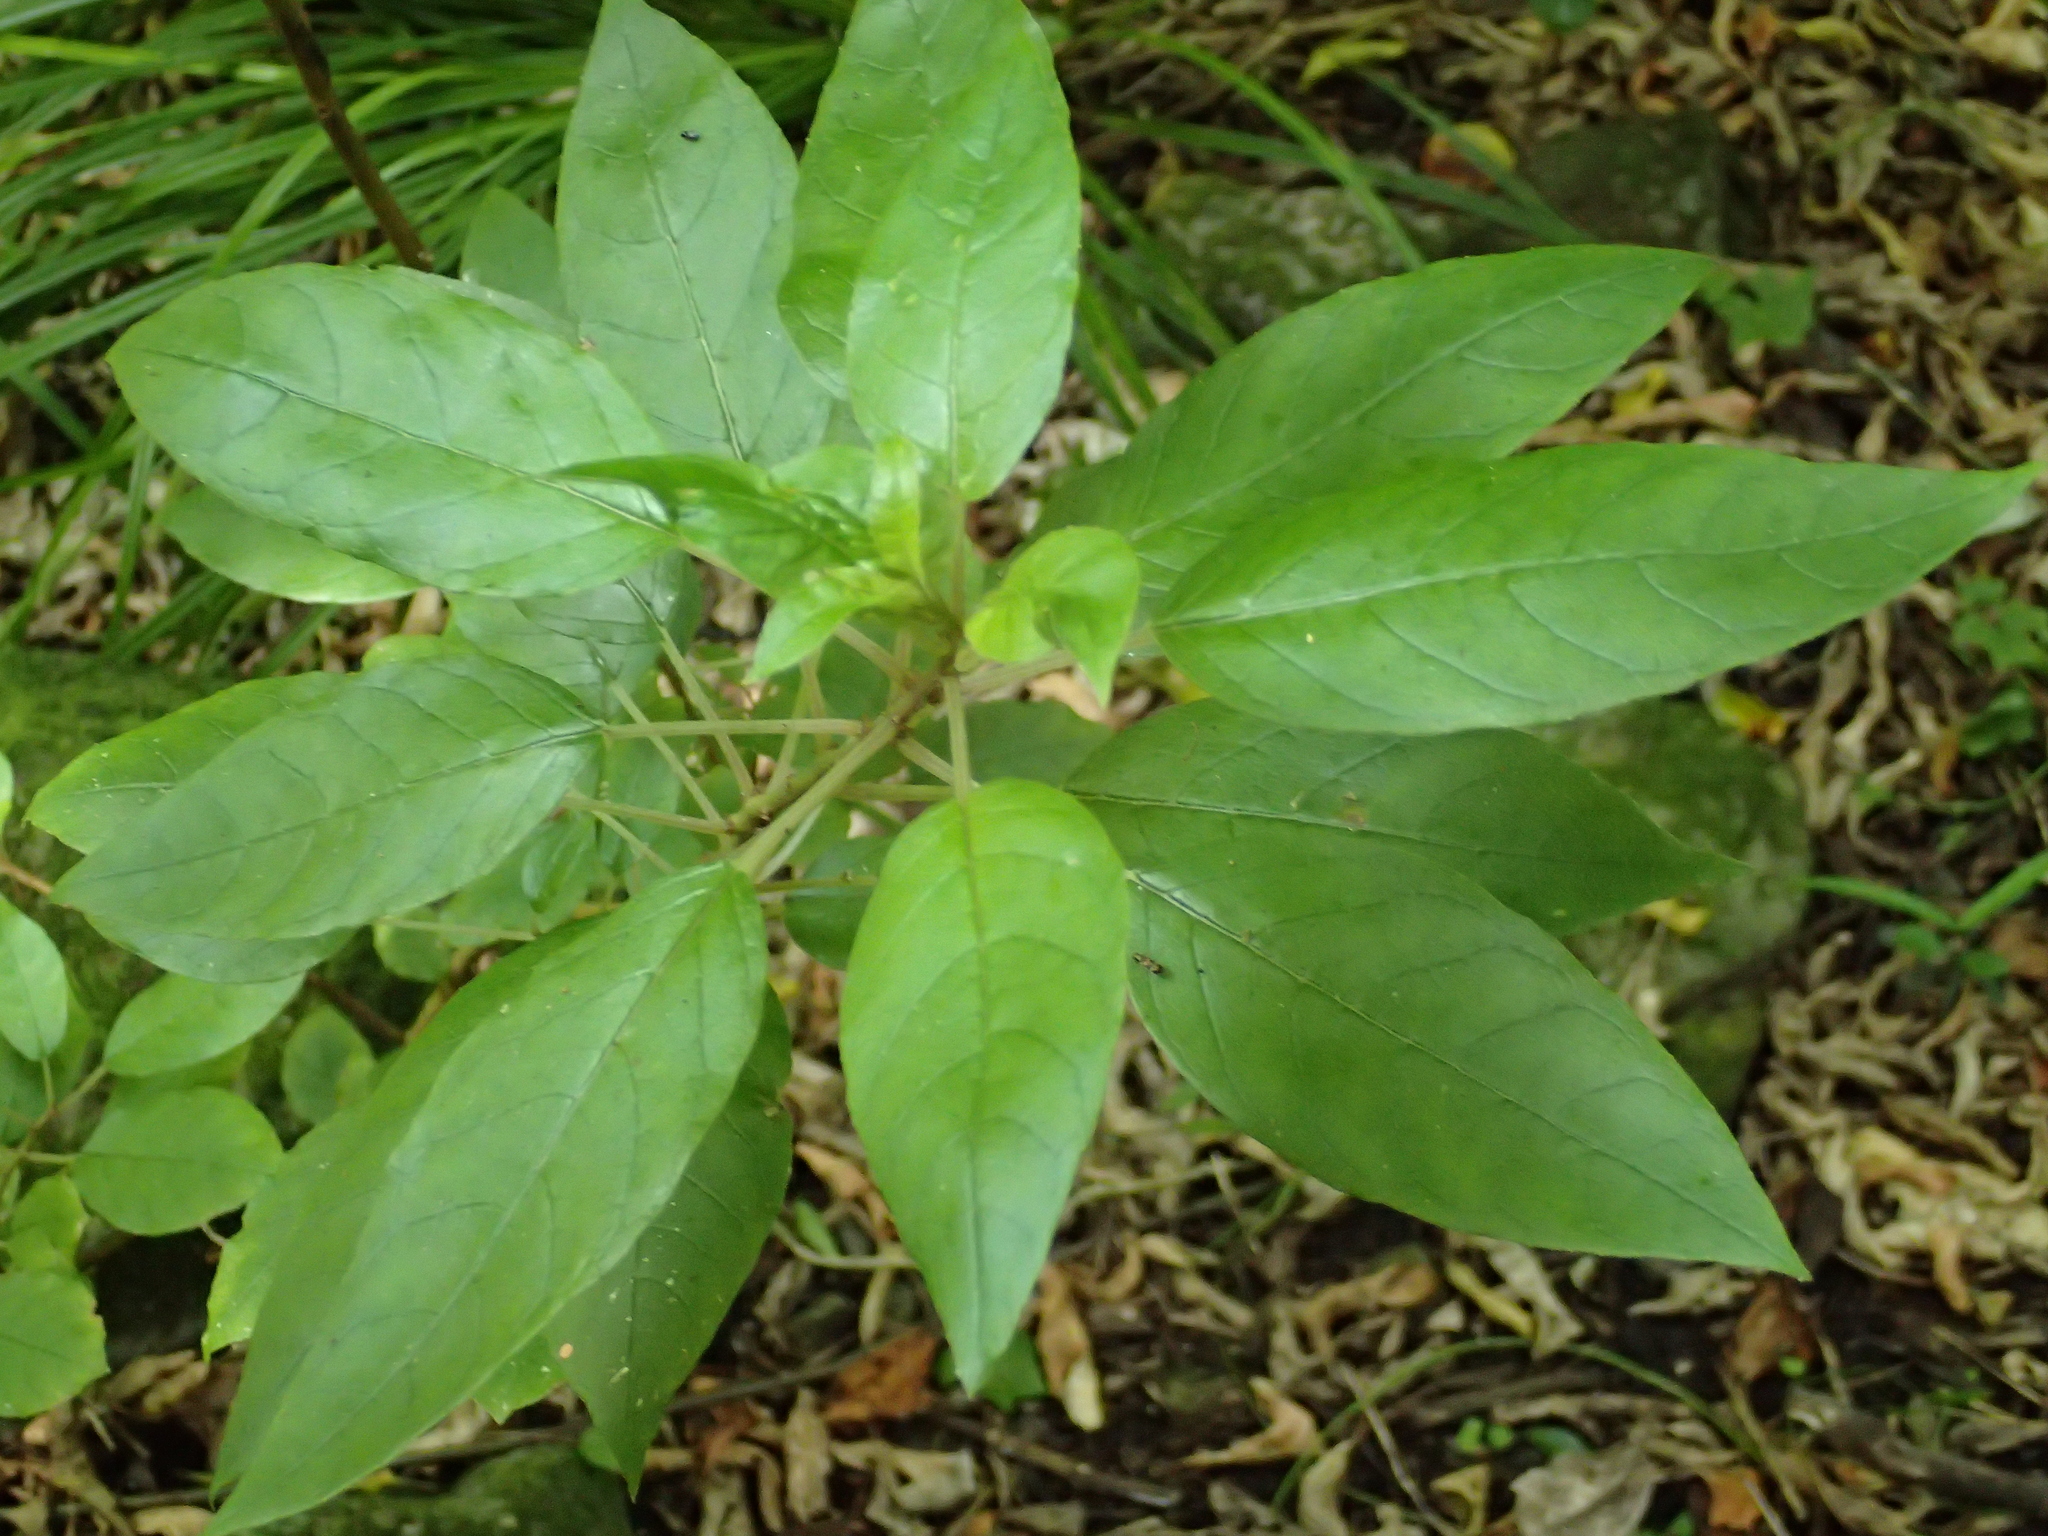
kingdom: Plantae
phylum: Tracheophyta
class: Magnoliopsida
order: Myrtales
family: Onagraceae
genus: Fuchsia
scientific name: Fuchsia excorticata
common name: Tree fuchsia
